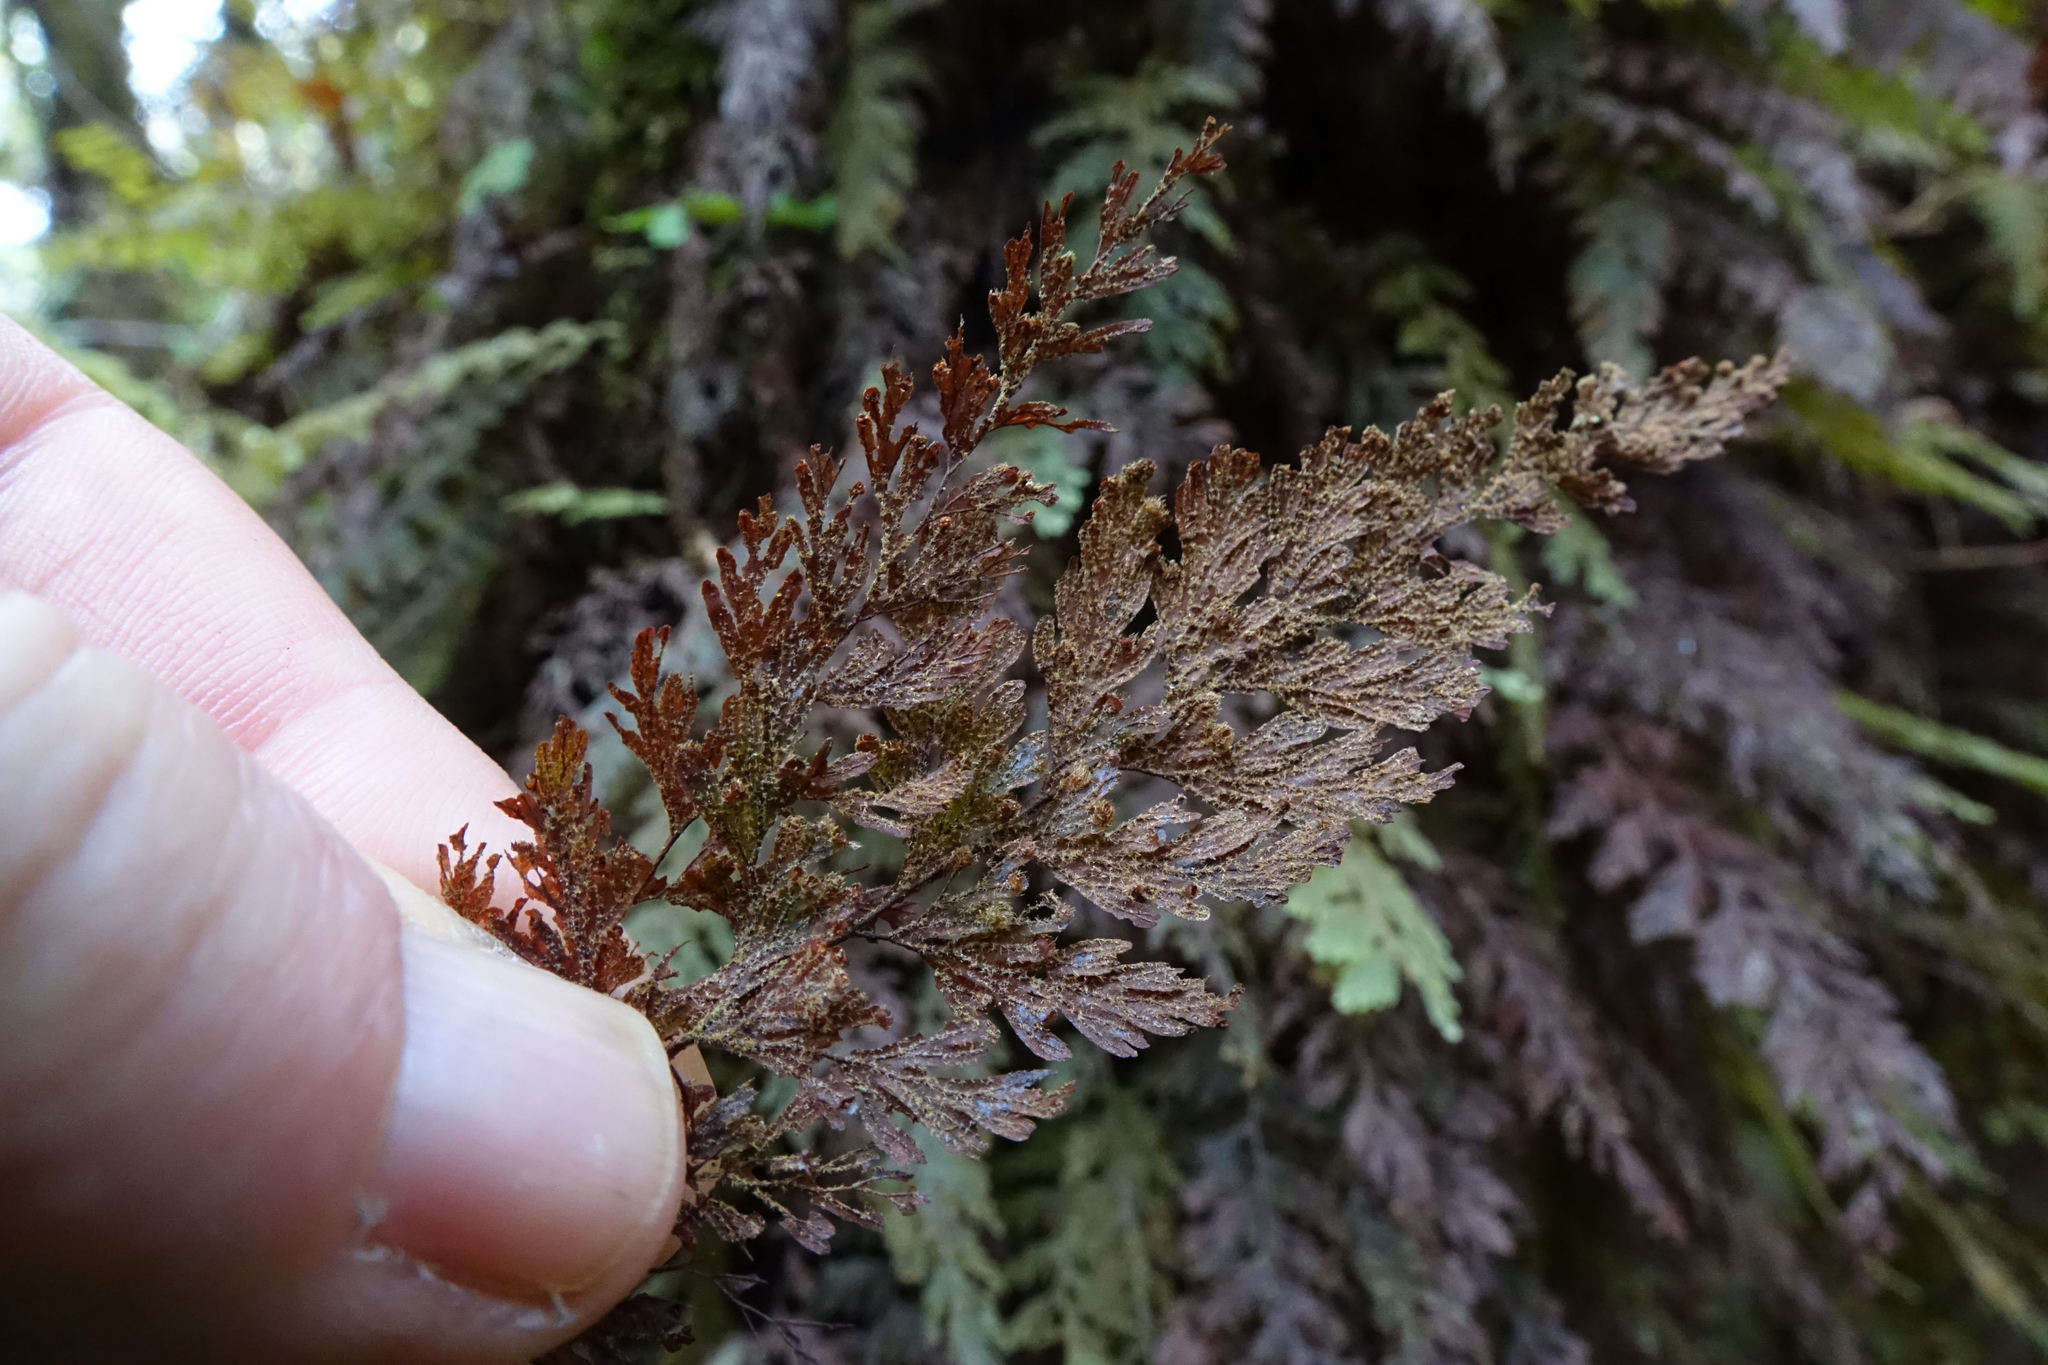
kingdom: Plantae
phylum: Tracheophyta
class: Polypodiopsida
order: Hymenophyllales
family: Hymenophyllaceae
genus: Hymenophyllum
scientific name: Hymenophyllum frankliniae
